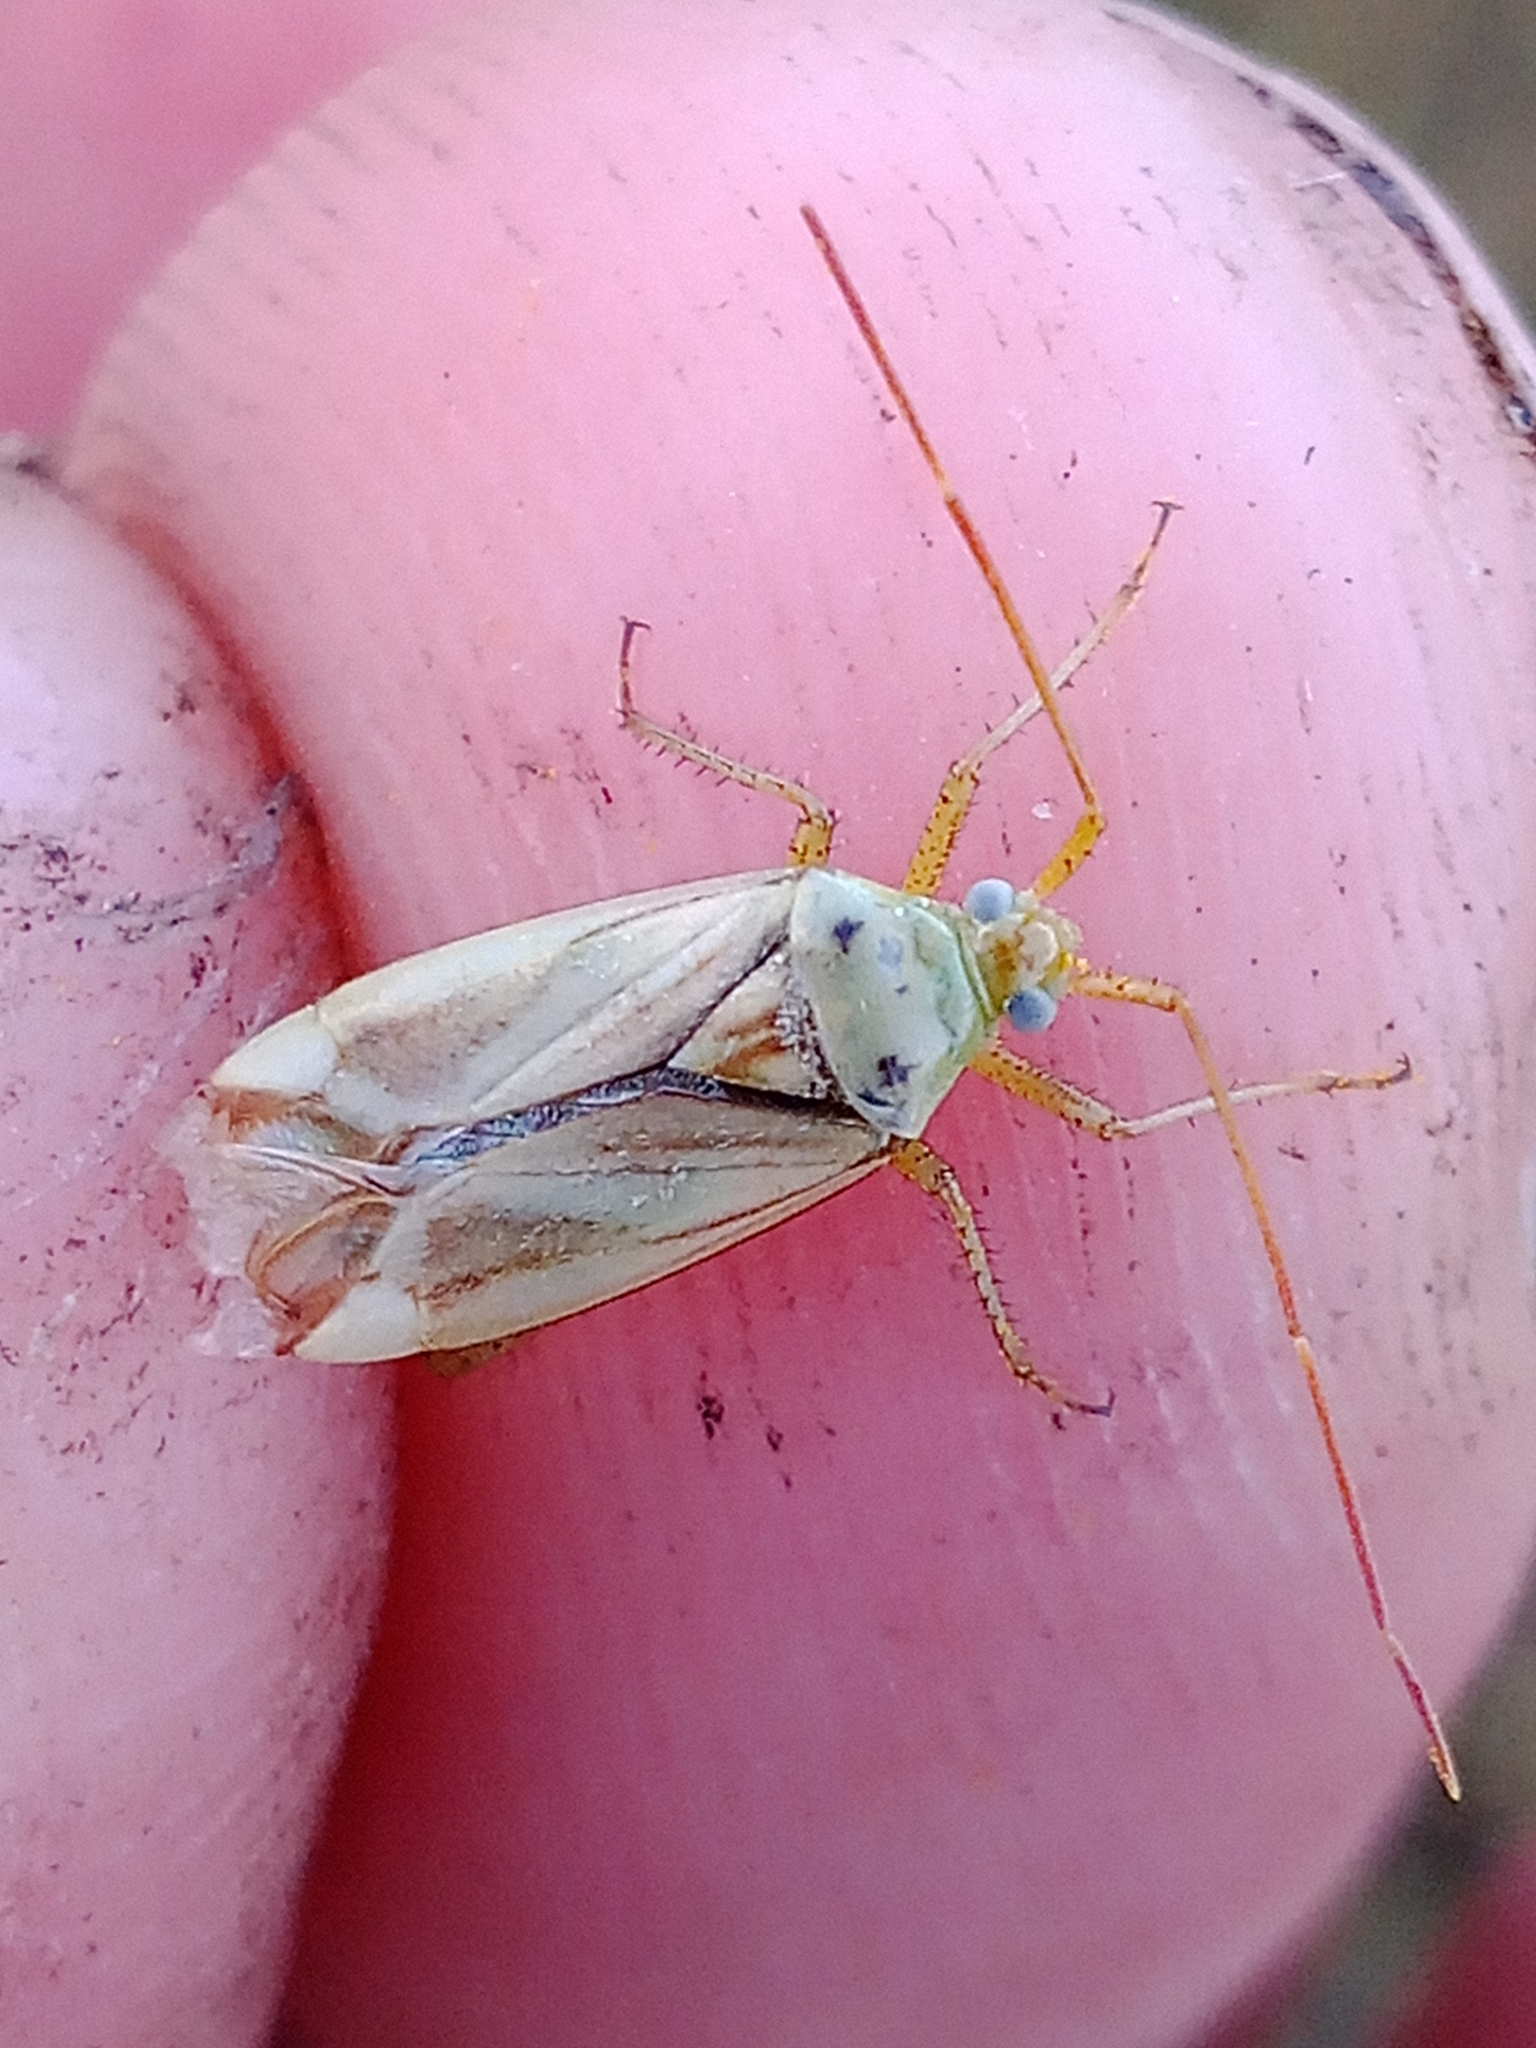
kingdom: Animalia
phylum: Arthropoda
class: Insecta
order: Hemiptera
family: Miridae
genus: Adelphocoris
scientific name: Adelphocoris lineolatus
